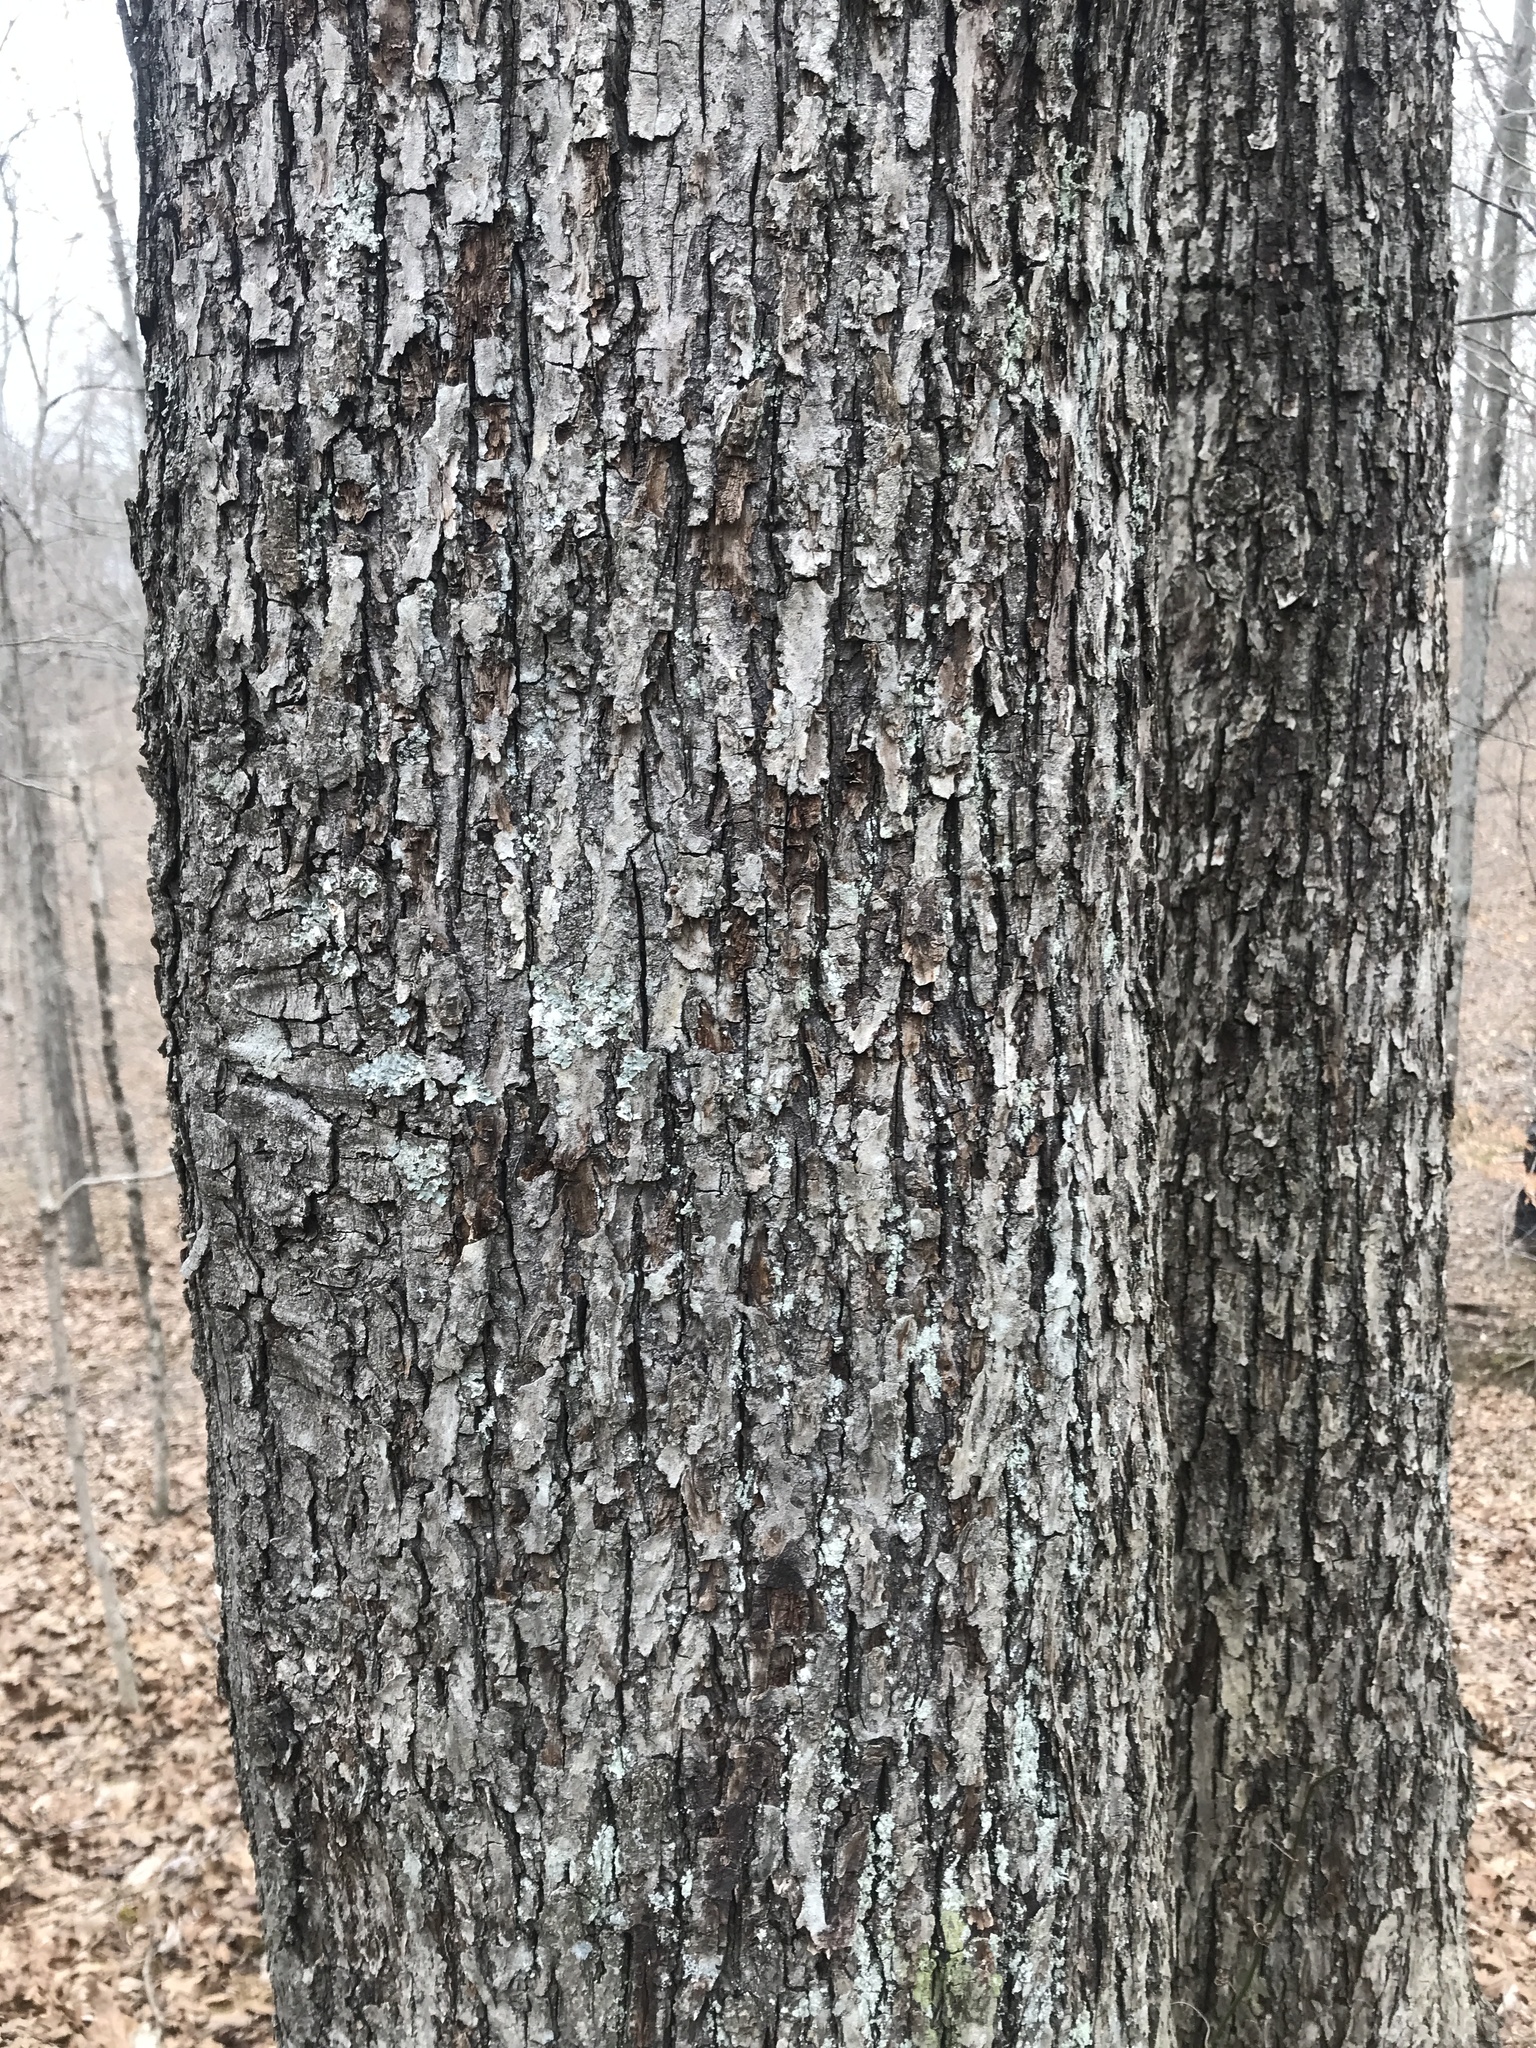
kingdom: Plantae
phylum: Tracheophyta
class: Magnoliopsida
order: Fagales
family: Juglandaceae
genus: Carya
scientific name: Carya cordiformis
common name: Bitternut hickory
